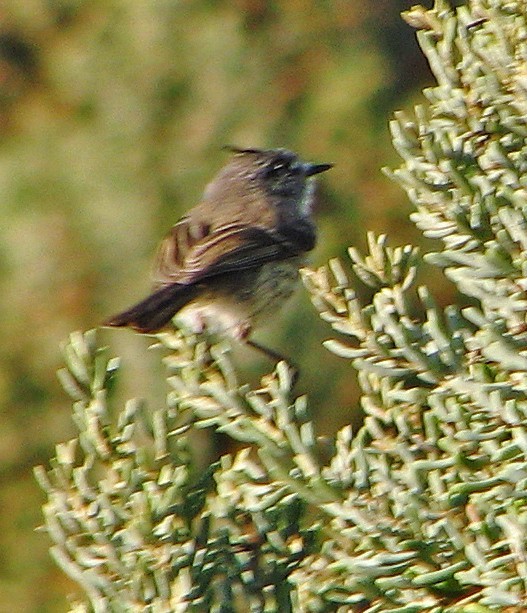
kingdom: Animalia
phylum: Chordata
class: Aves
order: Passeriformes
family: Tyrannidae
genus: Anairetes
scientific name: Anairetes parulus
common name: Tufted tit-tyrant
